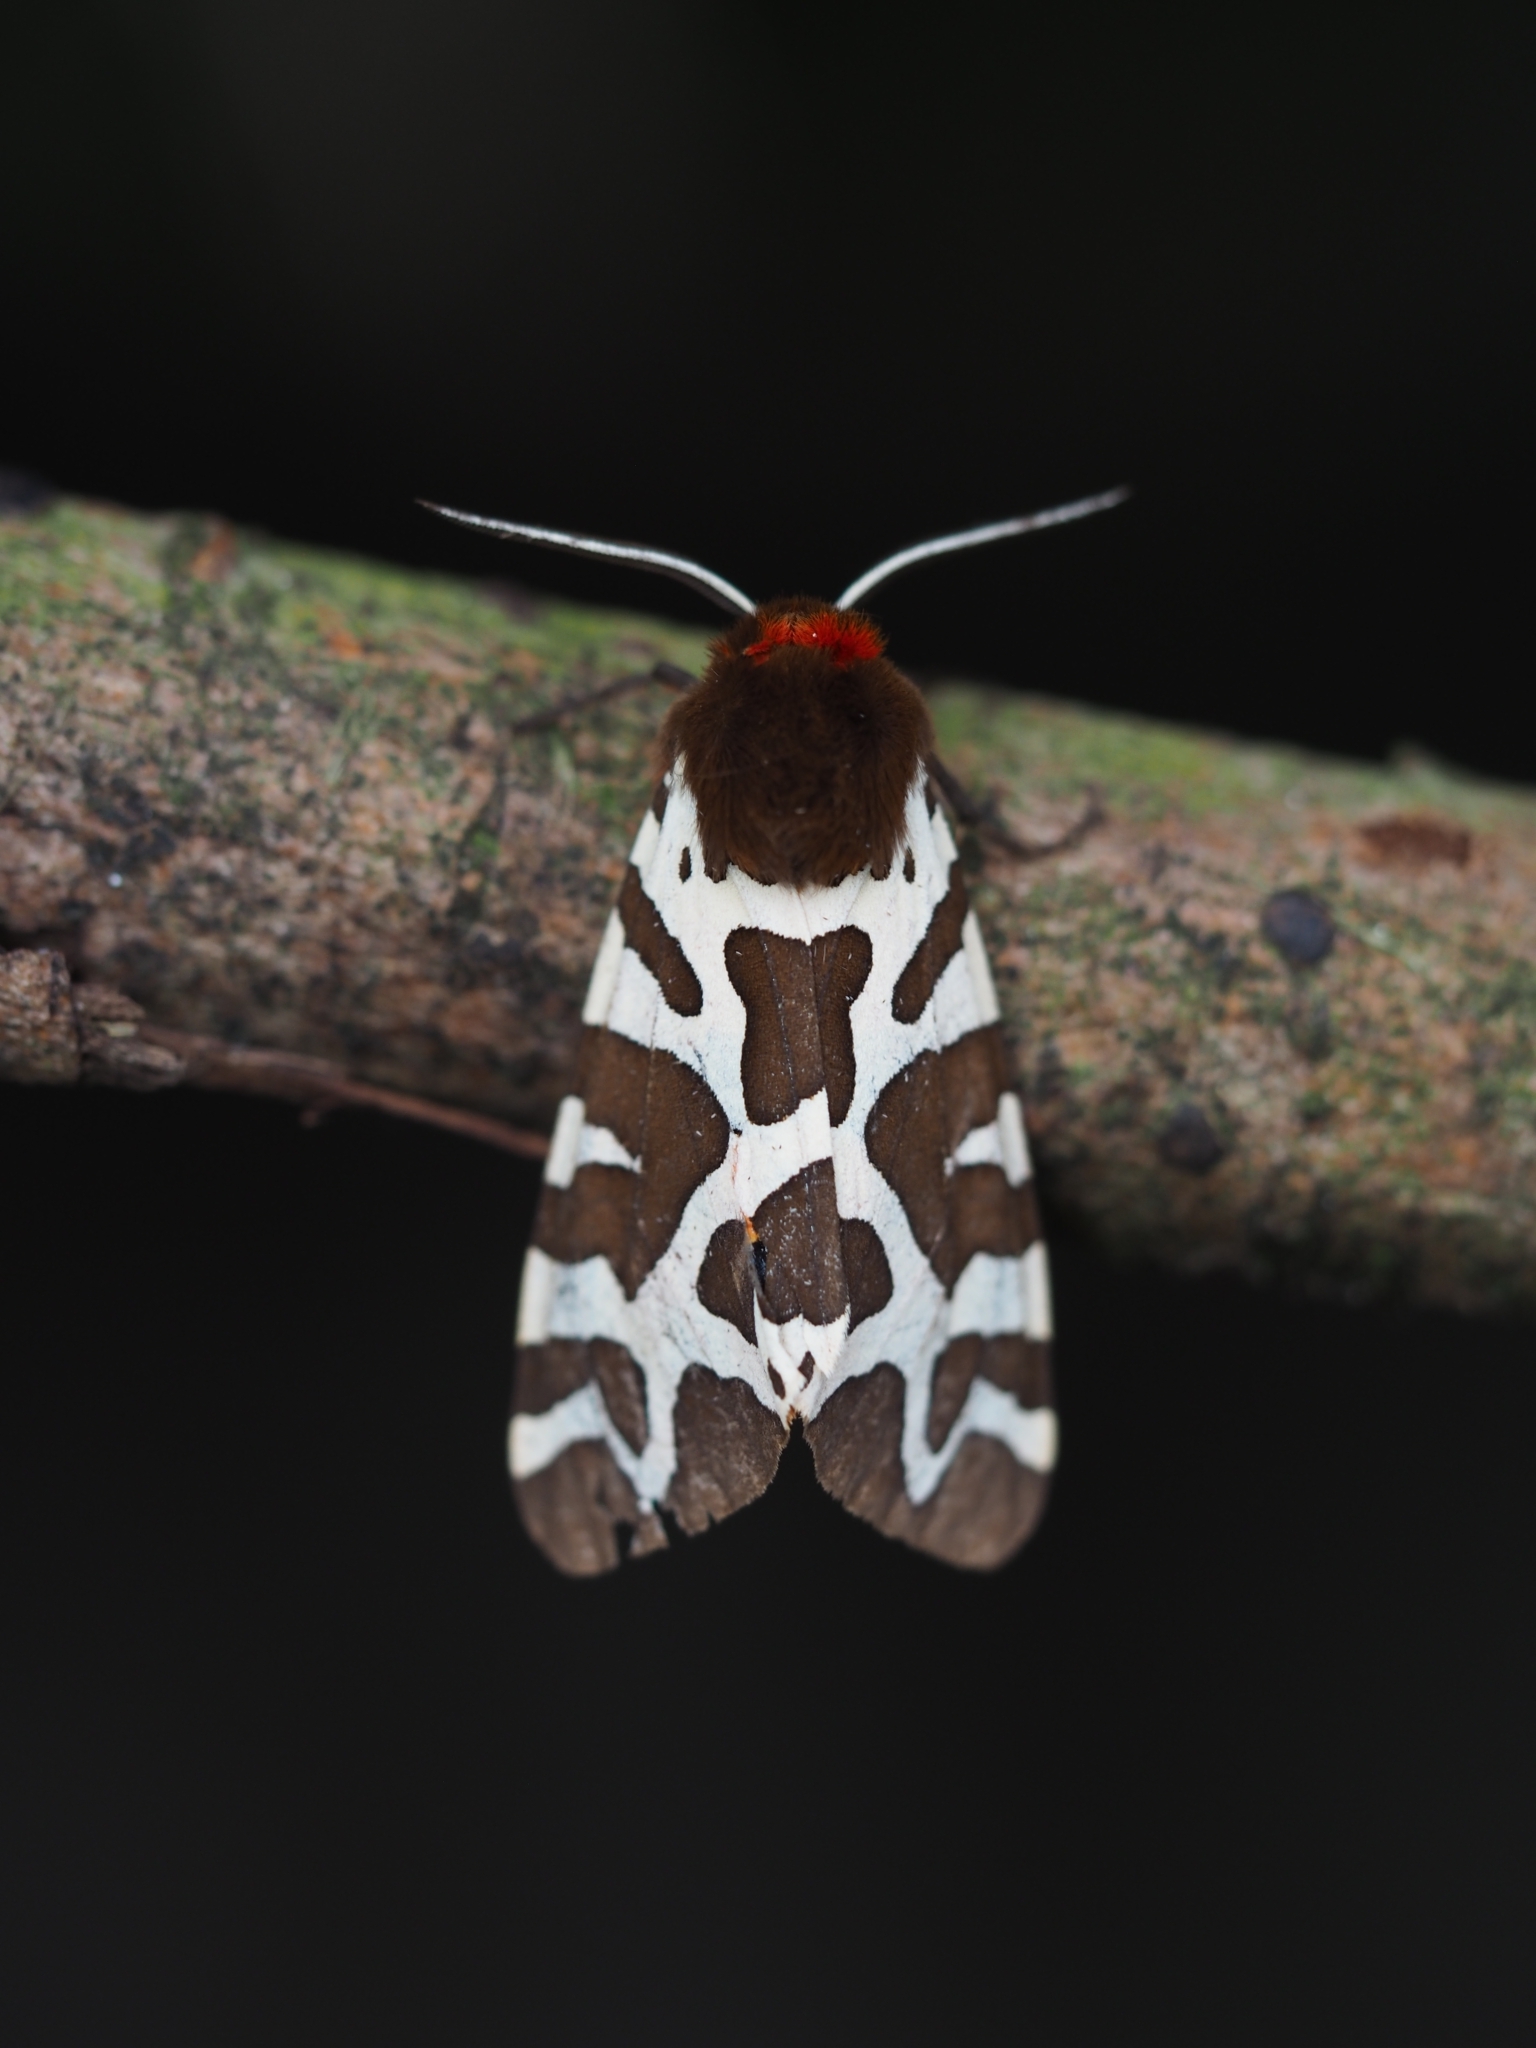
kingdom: Animalia
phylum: Arthropoda
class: Insecta
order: Lepidoptera
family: Erebidae
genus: Arctia
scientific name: Arctia caja
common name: Garden tiger
